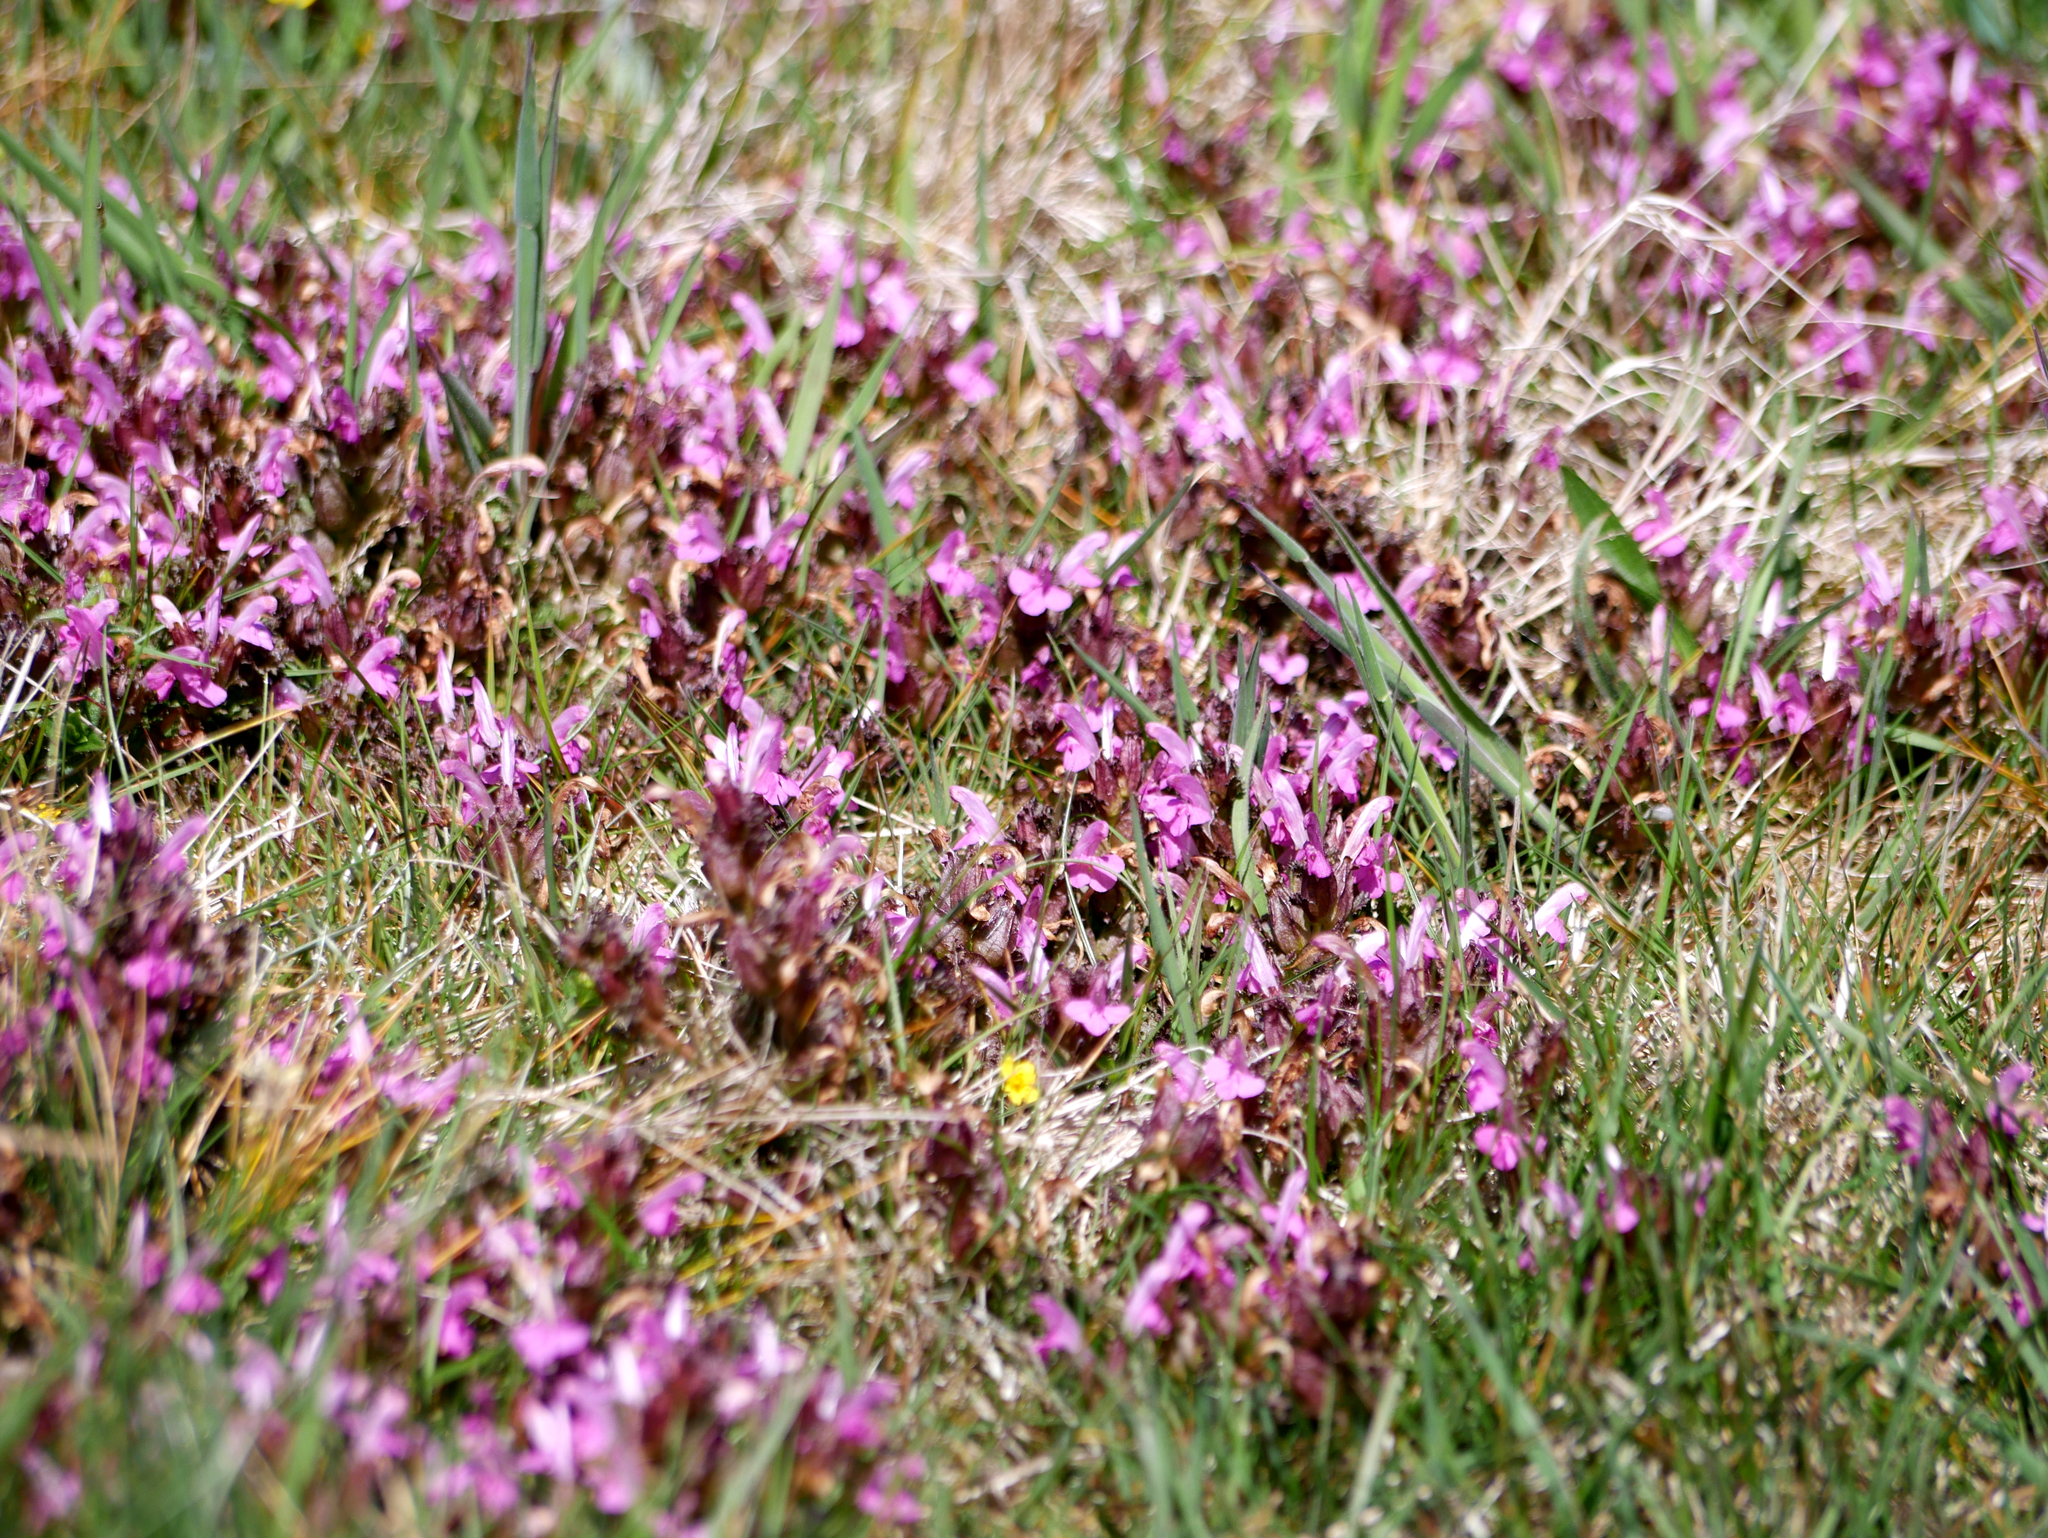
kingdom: Plantae
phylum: Tracheophyta
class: Magnoliopsida
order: Lamiales
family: Orobanchaceae
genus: Pedicularis
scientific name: Pedicularis sylvatica
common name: Lousewort
